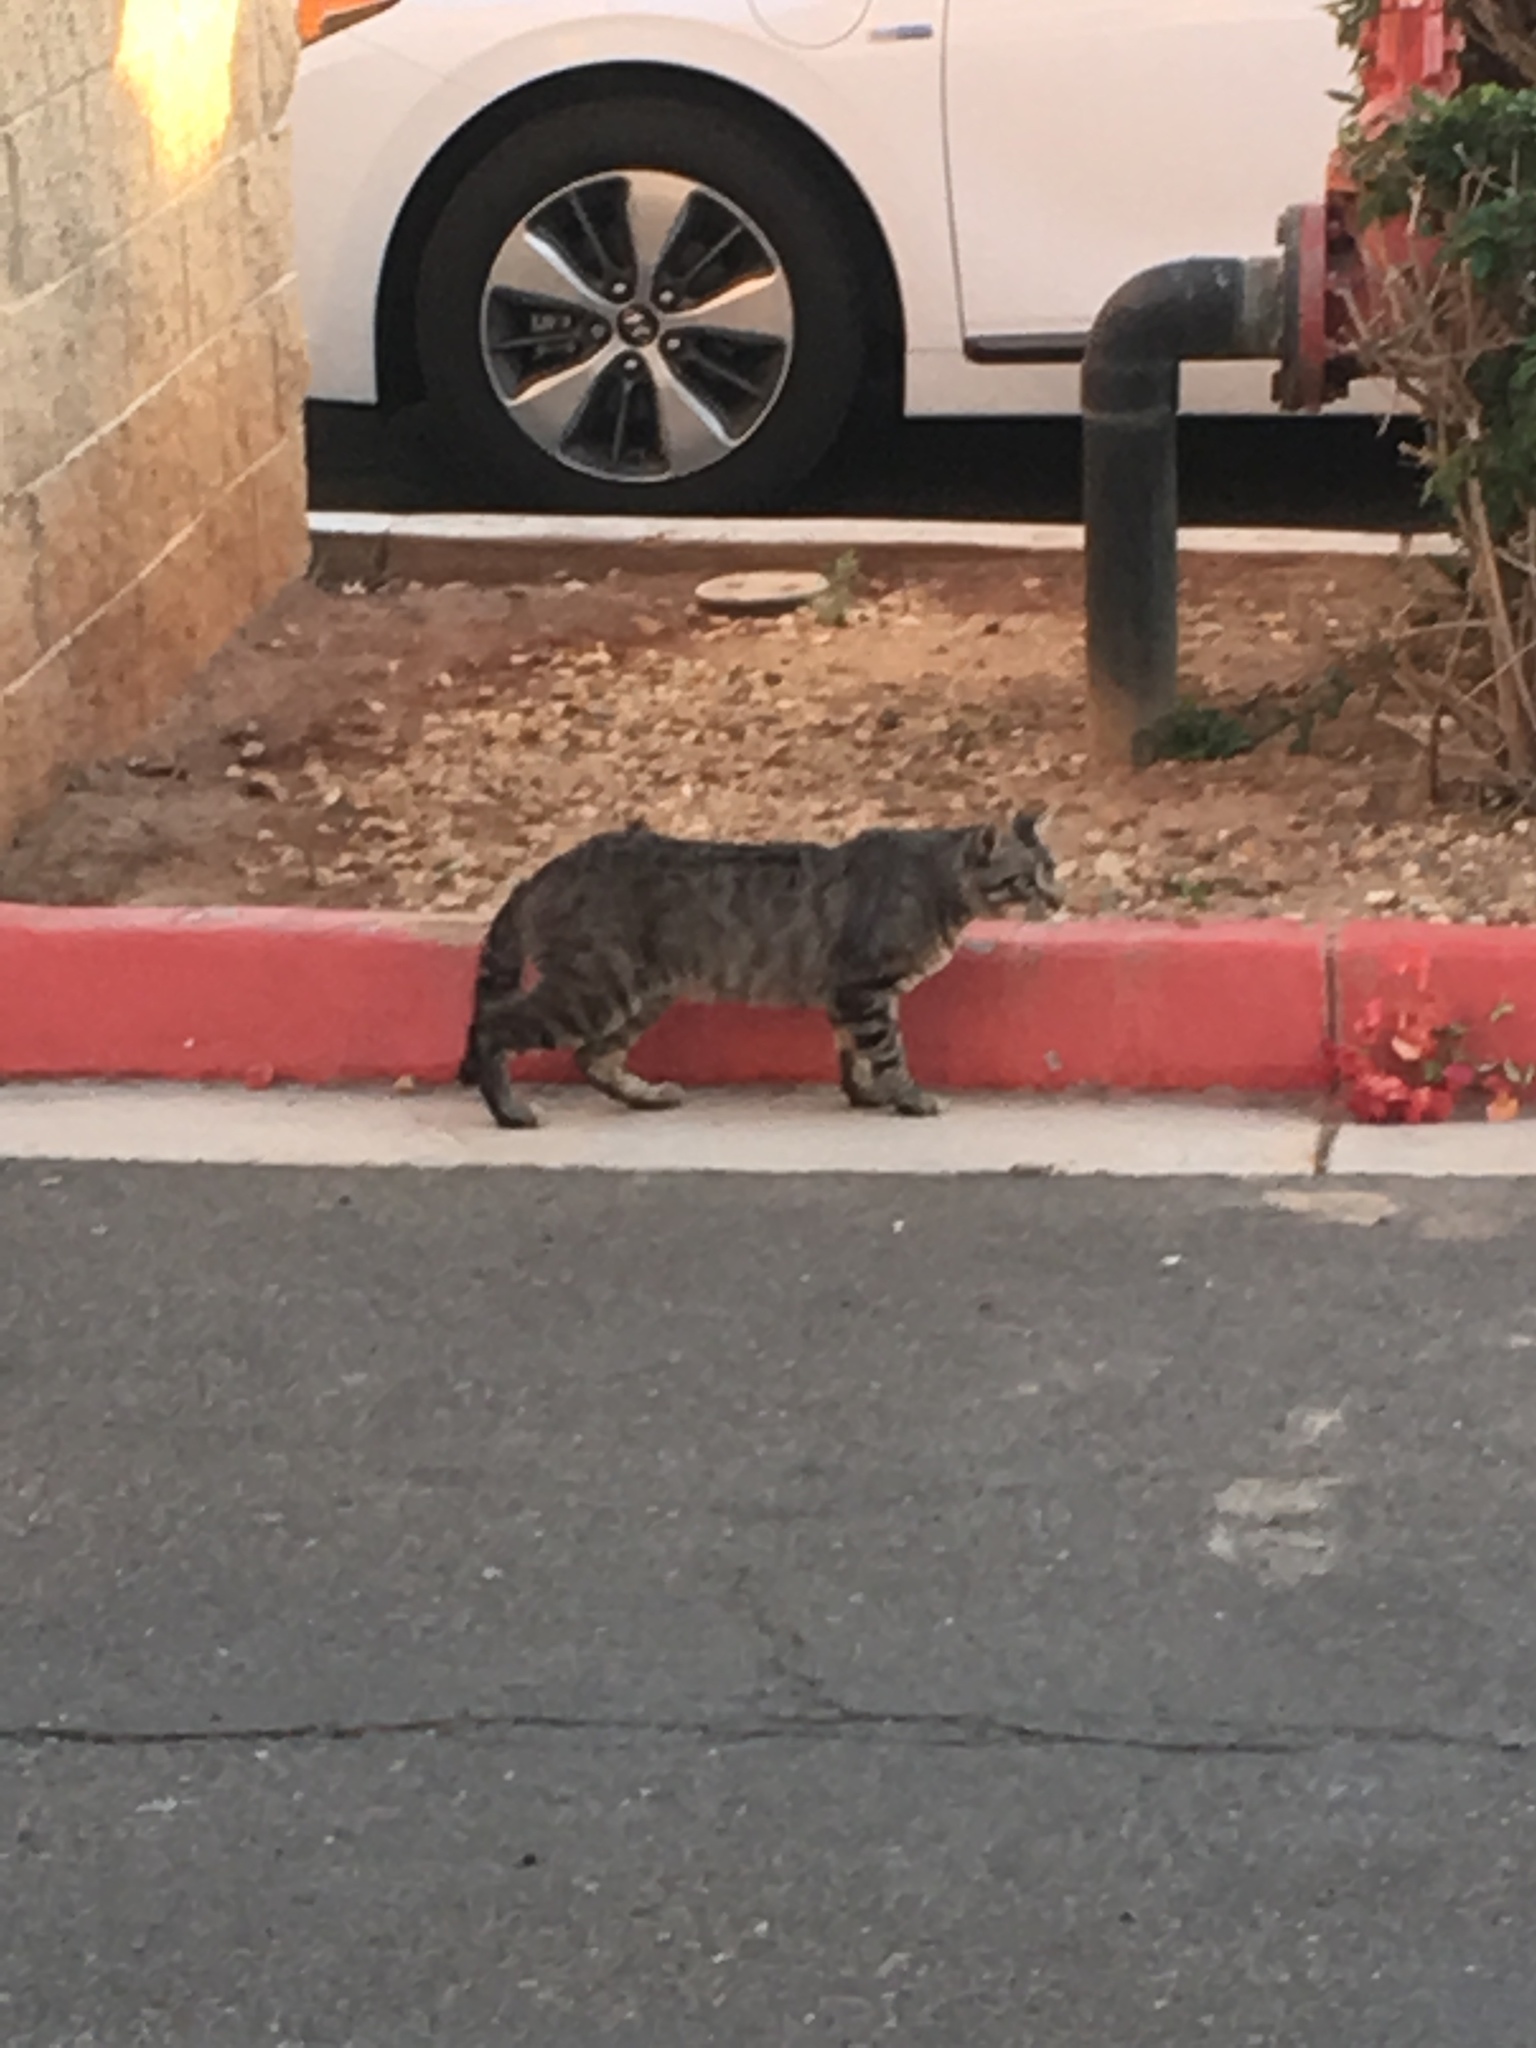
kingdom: Animalia
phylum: Chordata
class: Mammalia
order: Carnivora
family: Felidae
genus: Felis
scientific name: Felis catus
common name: Domestic cat
